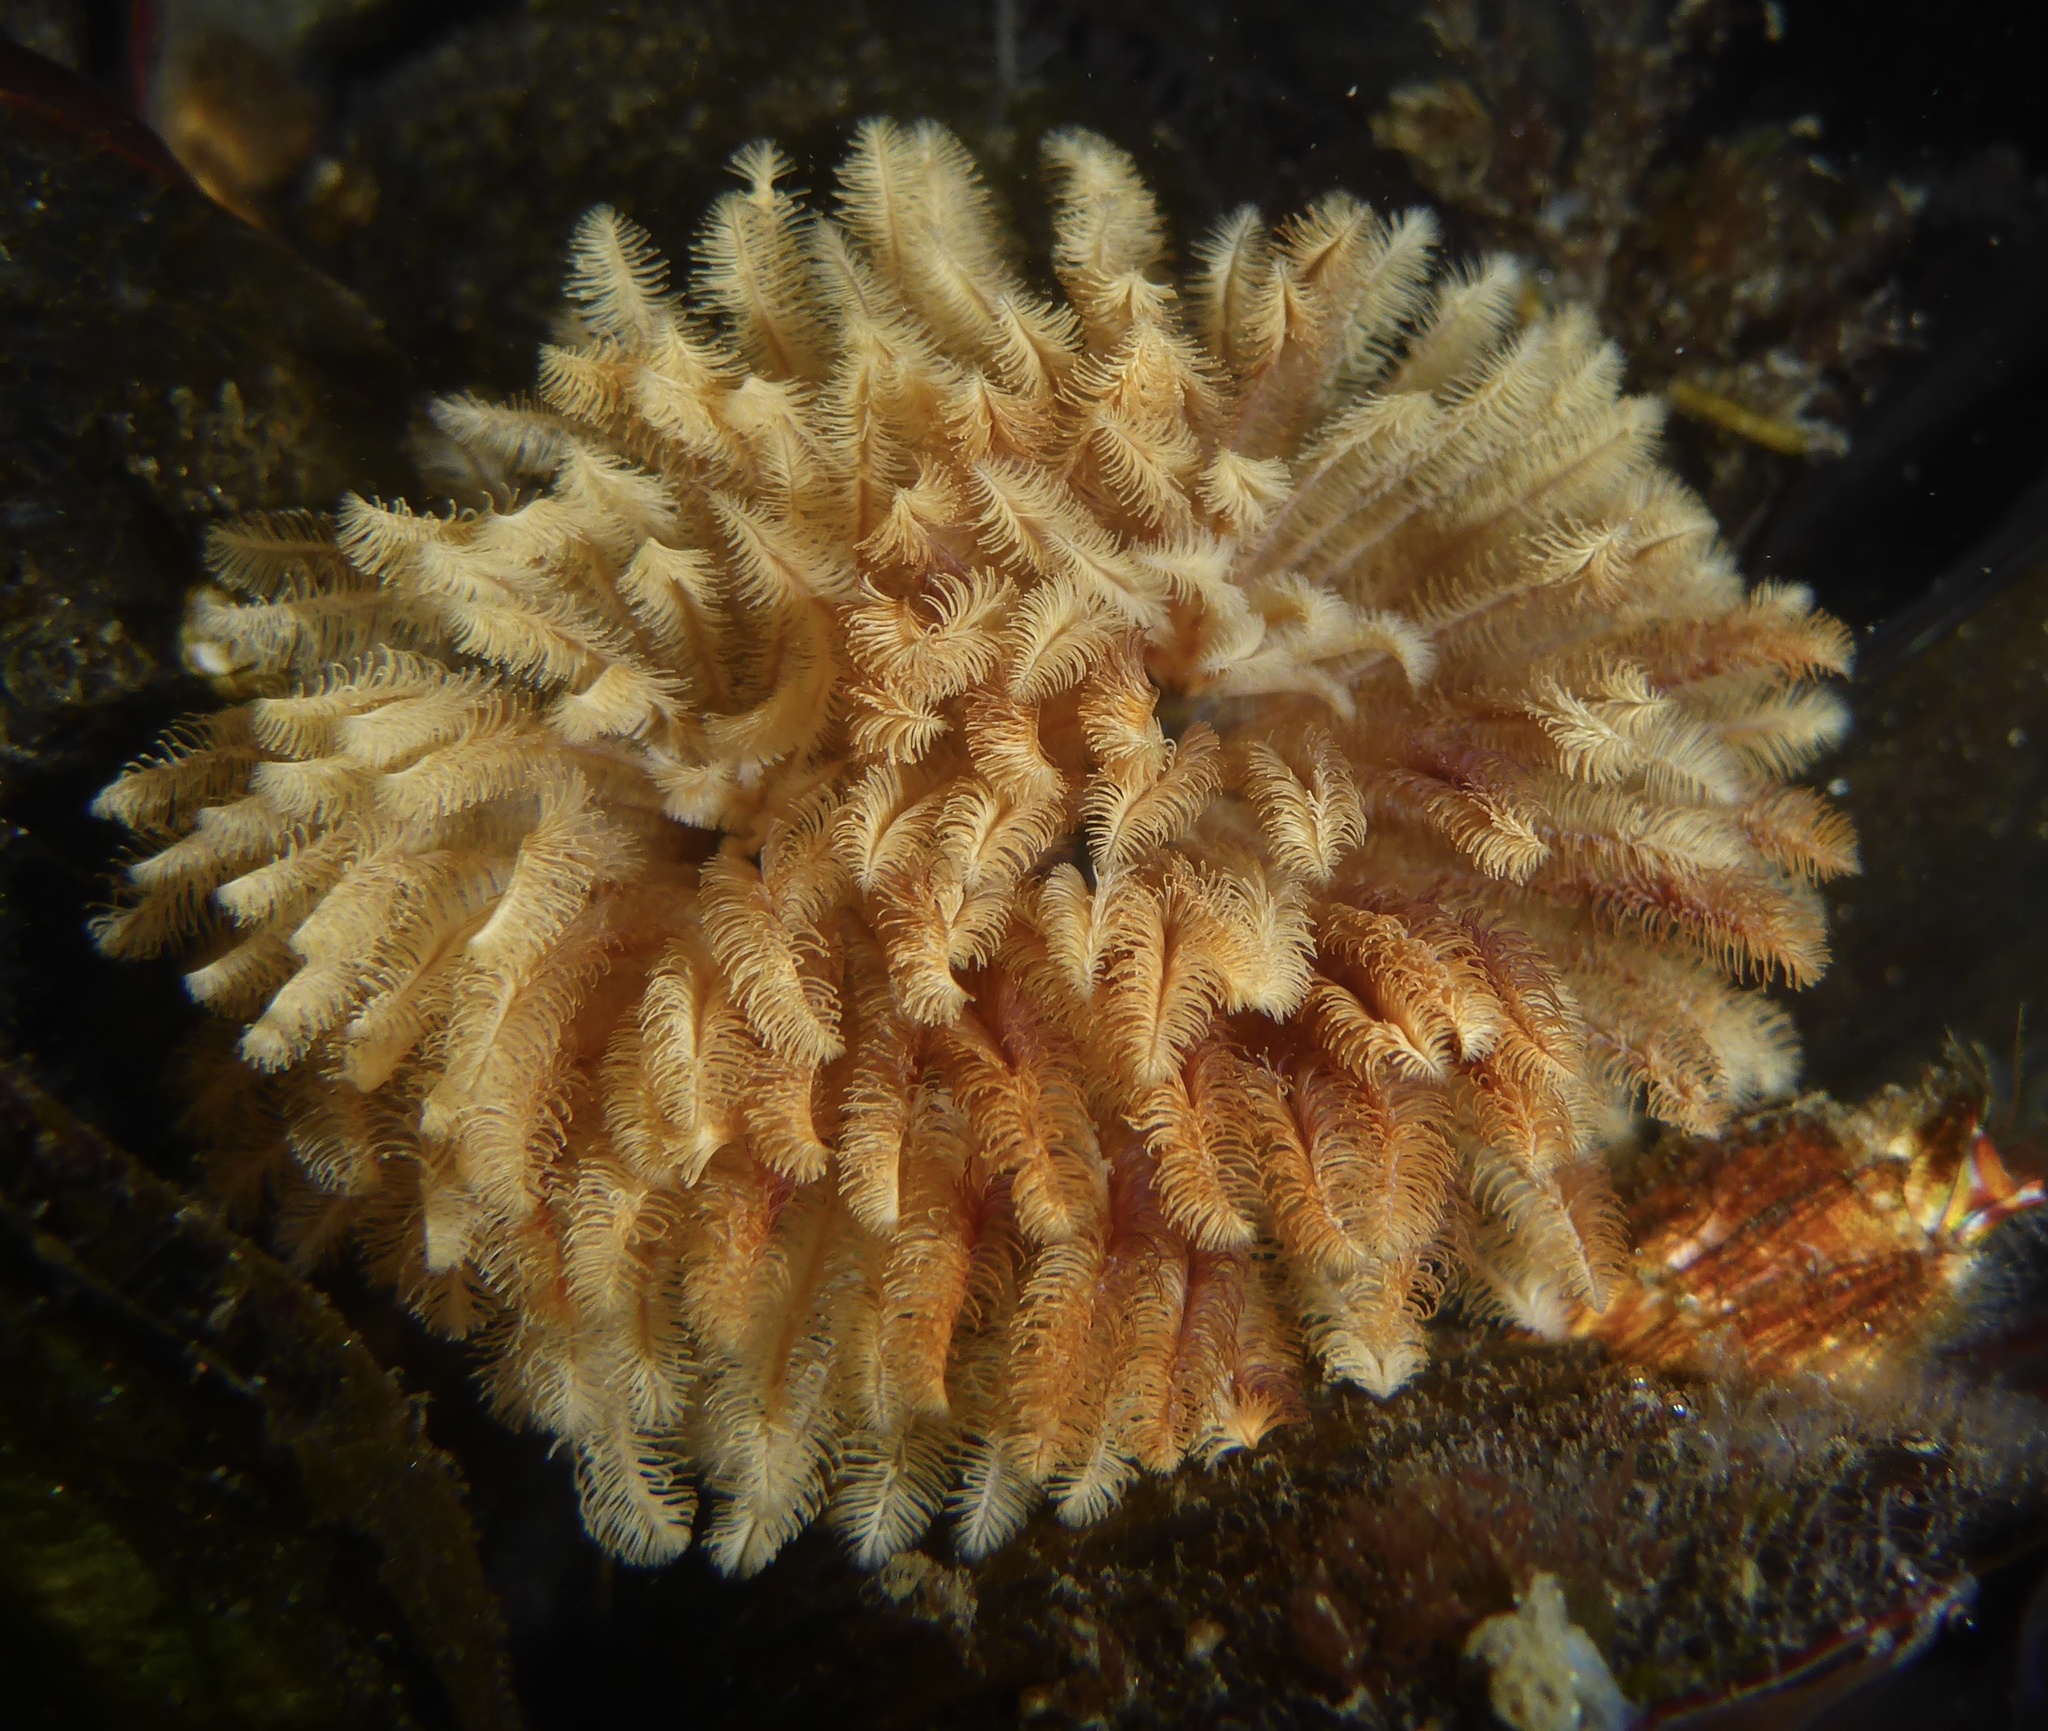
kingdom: Animalia
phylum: Annelida
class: Polychaeta
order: Sabellida
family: Sabellidae
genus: Eudistylia
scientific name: Eudistylia polymorpha
